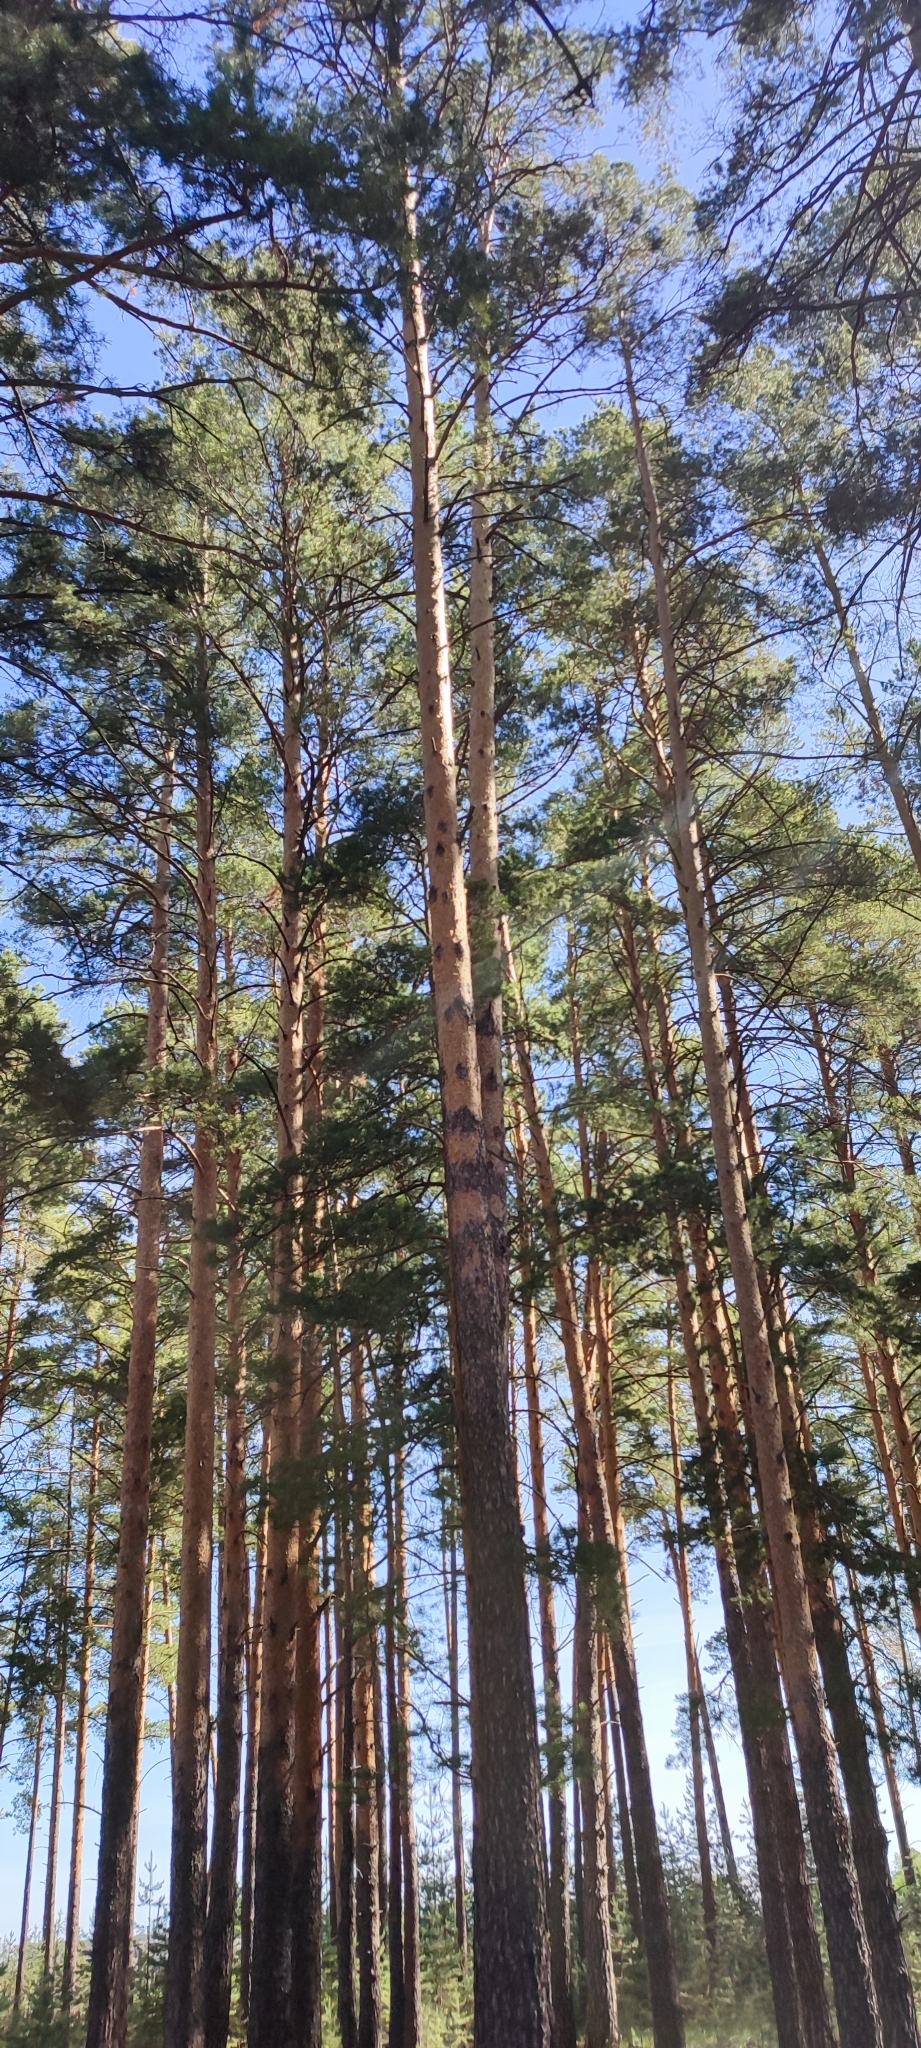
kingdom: Plantae
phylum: Tracheophyta
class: Pinopsida
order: Pinales
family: Pinaceae
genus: Pinus
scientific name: Pinus sylvestris
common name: Scots pine
